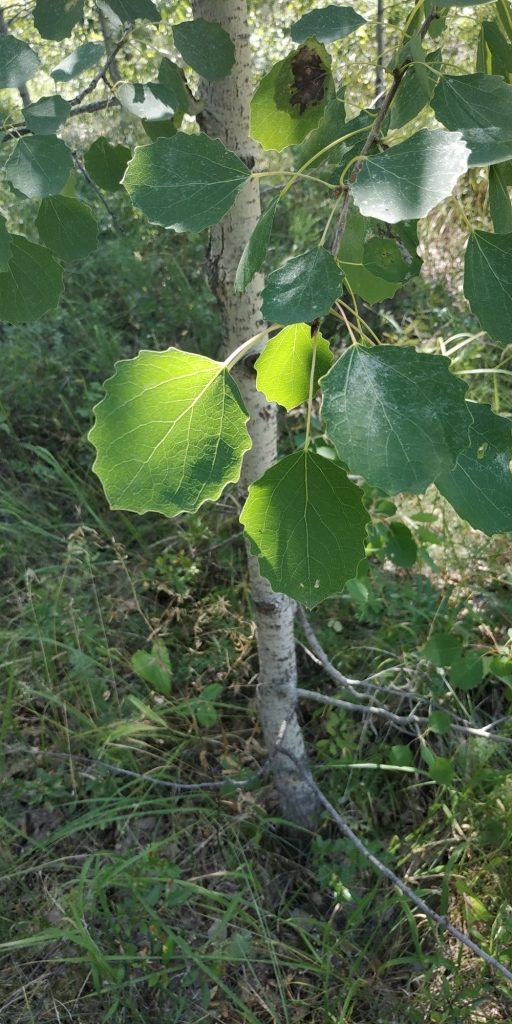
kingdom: Plantae
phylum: Tracheophyta
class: Magnoliopsida
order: Malpighiales
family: Salicaceae
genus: Populus
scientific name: Populus tremula
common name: European aspen
